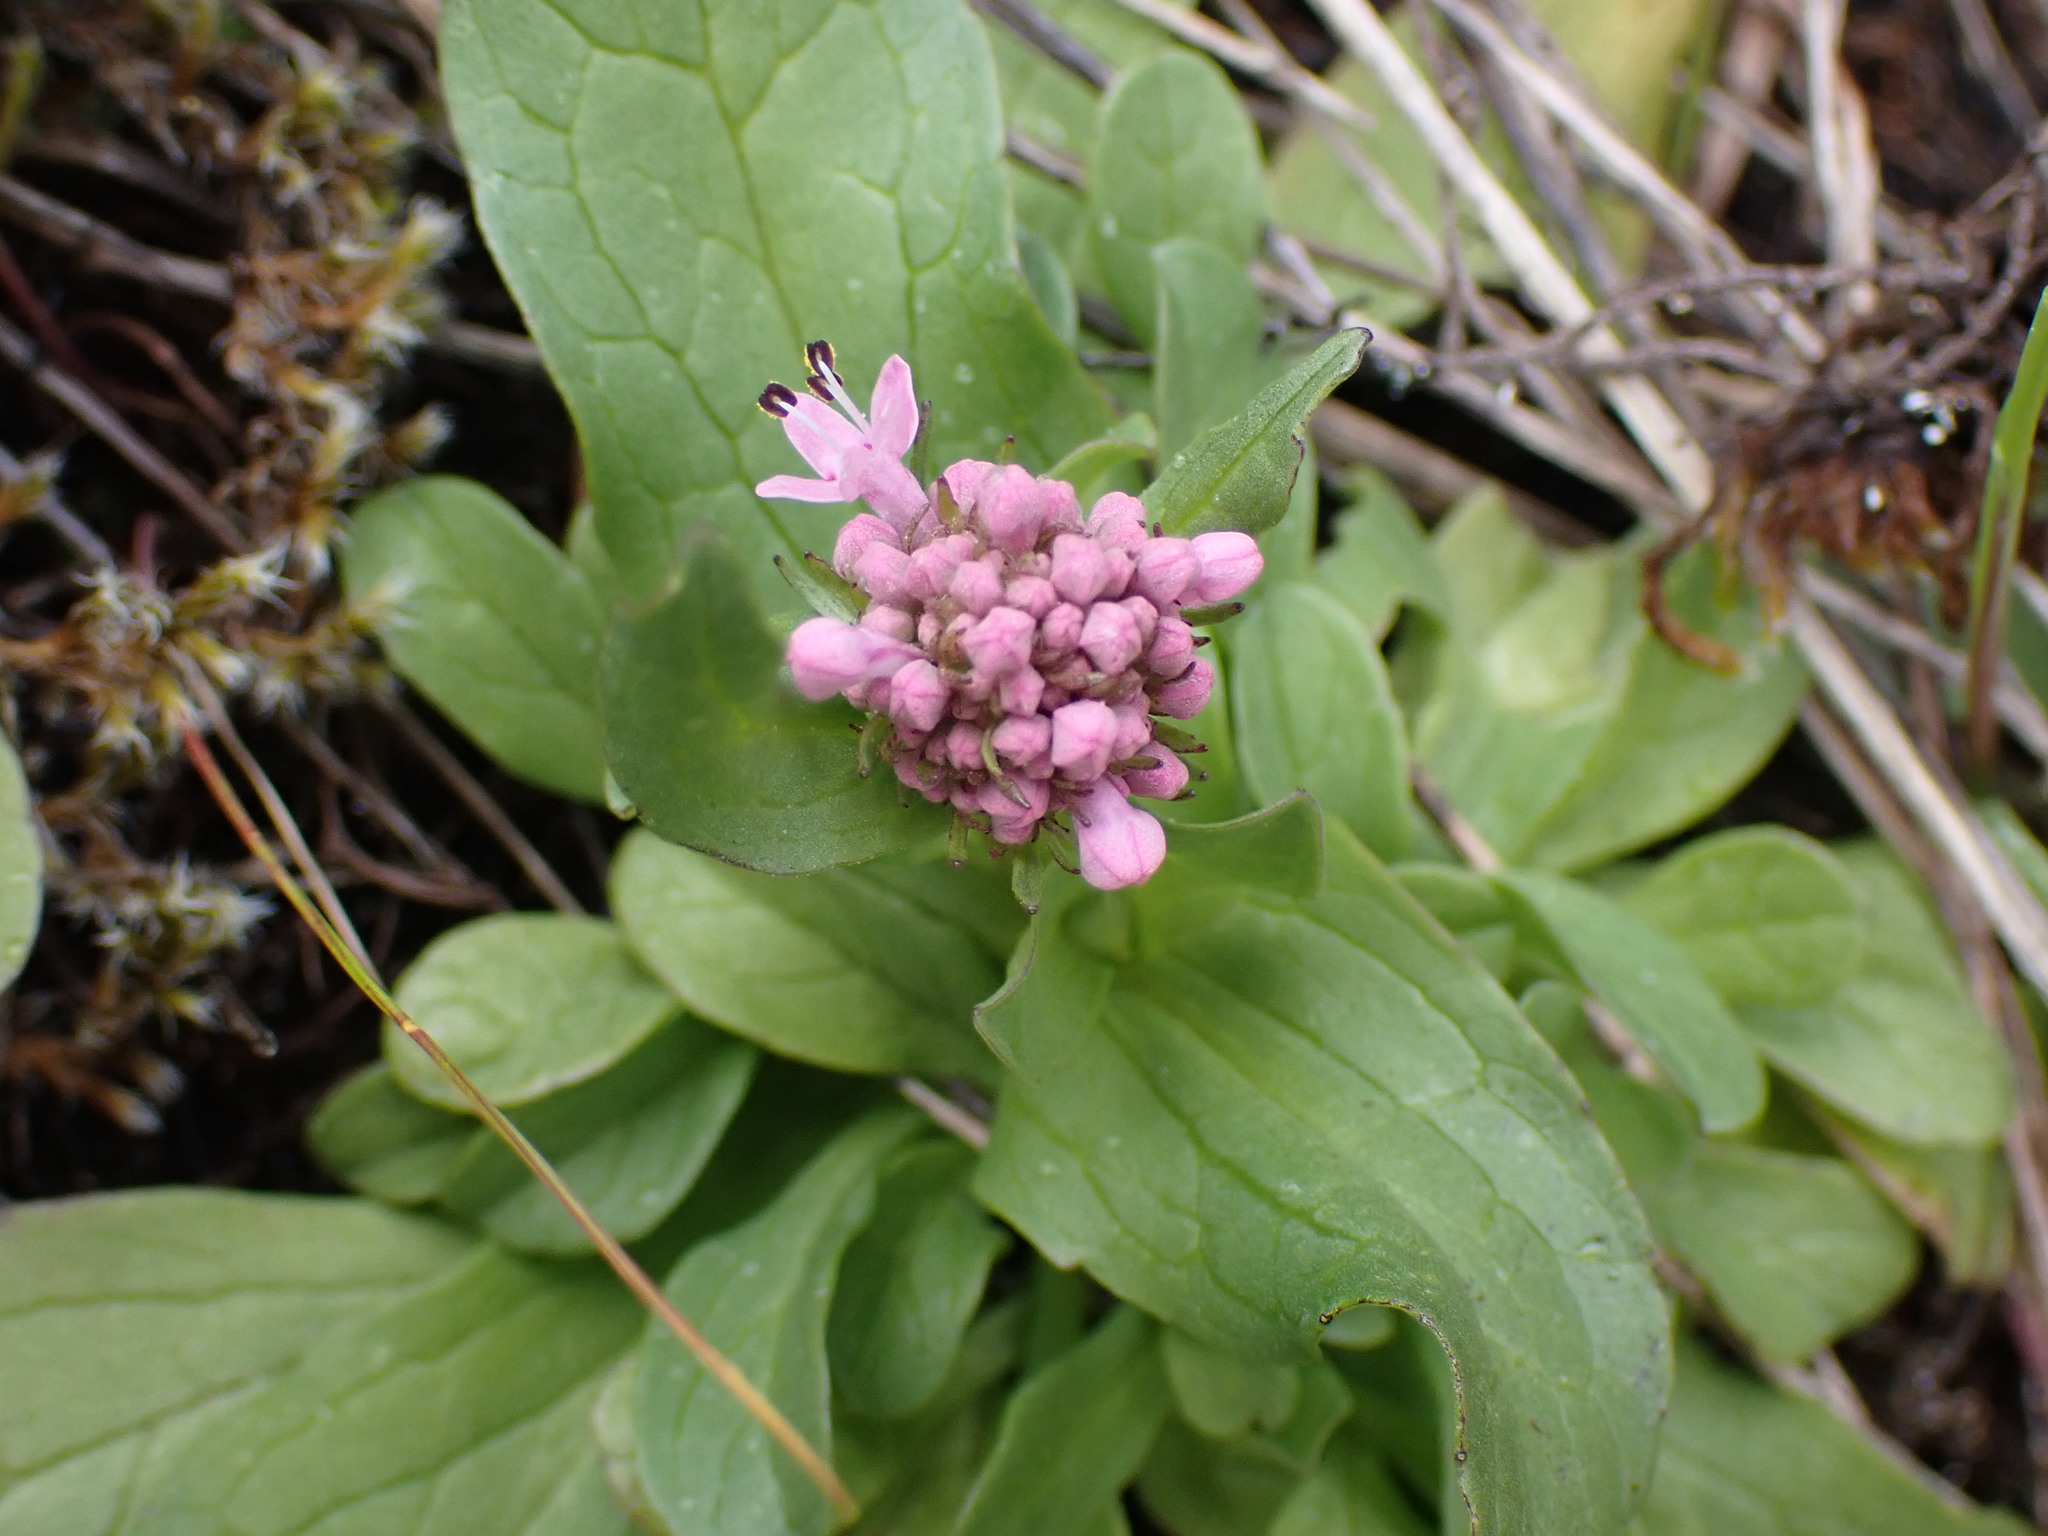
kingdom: Plantae
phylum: Tracheophyta
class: Magnoliopsida
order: Dipsacales
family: Caprifoliaceae
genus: Plectritis
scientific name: Plectritis congesta
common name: Pink plectritis
